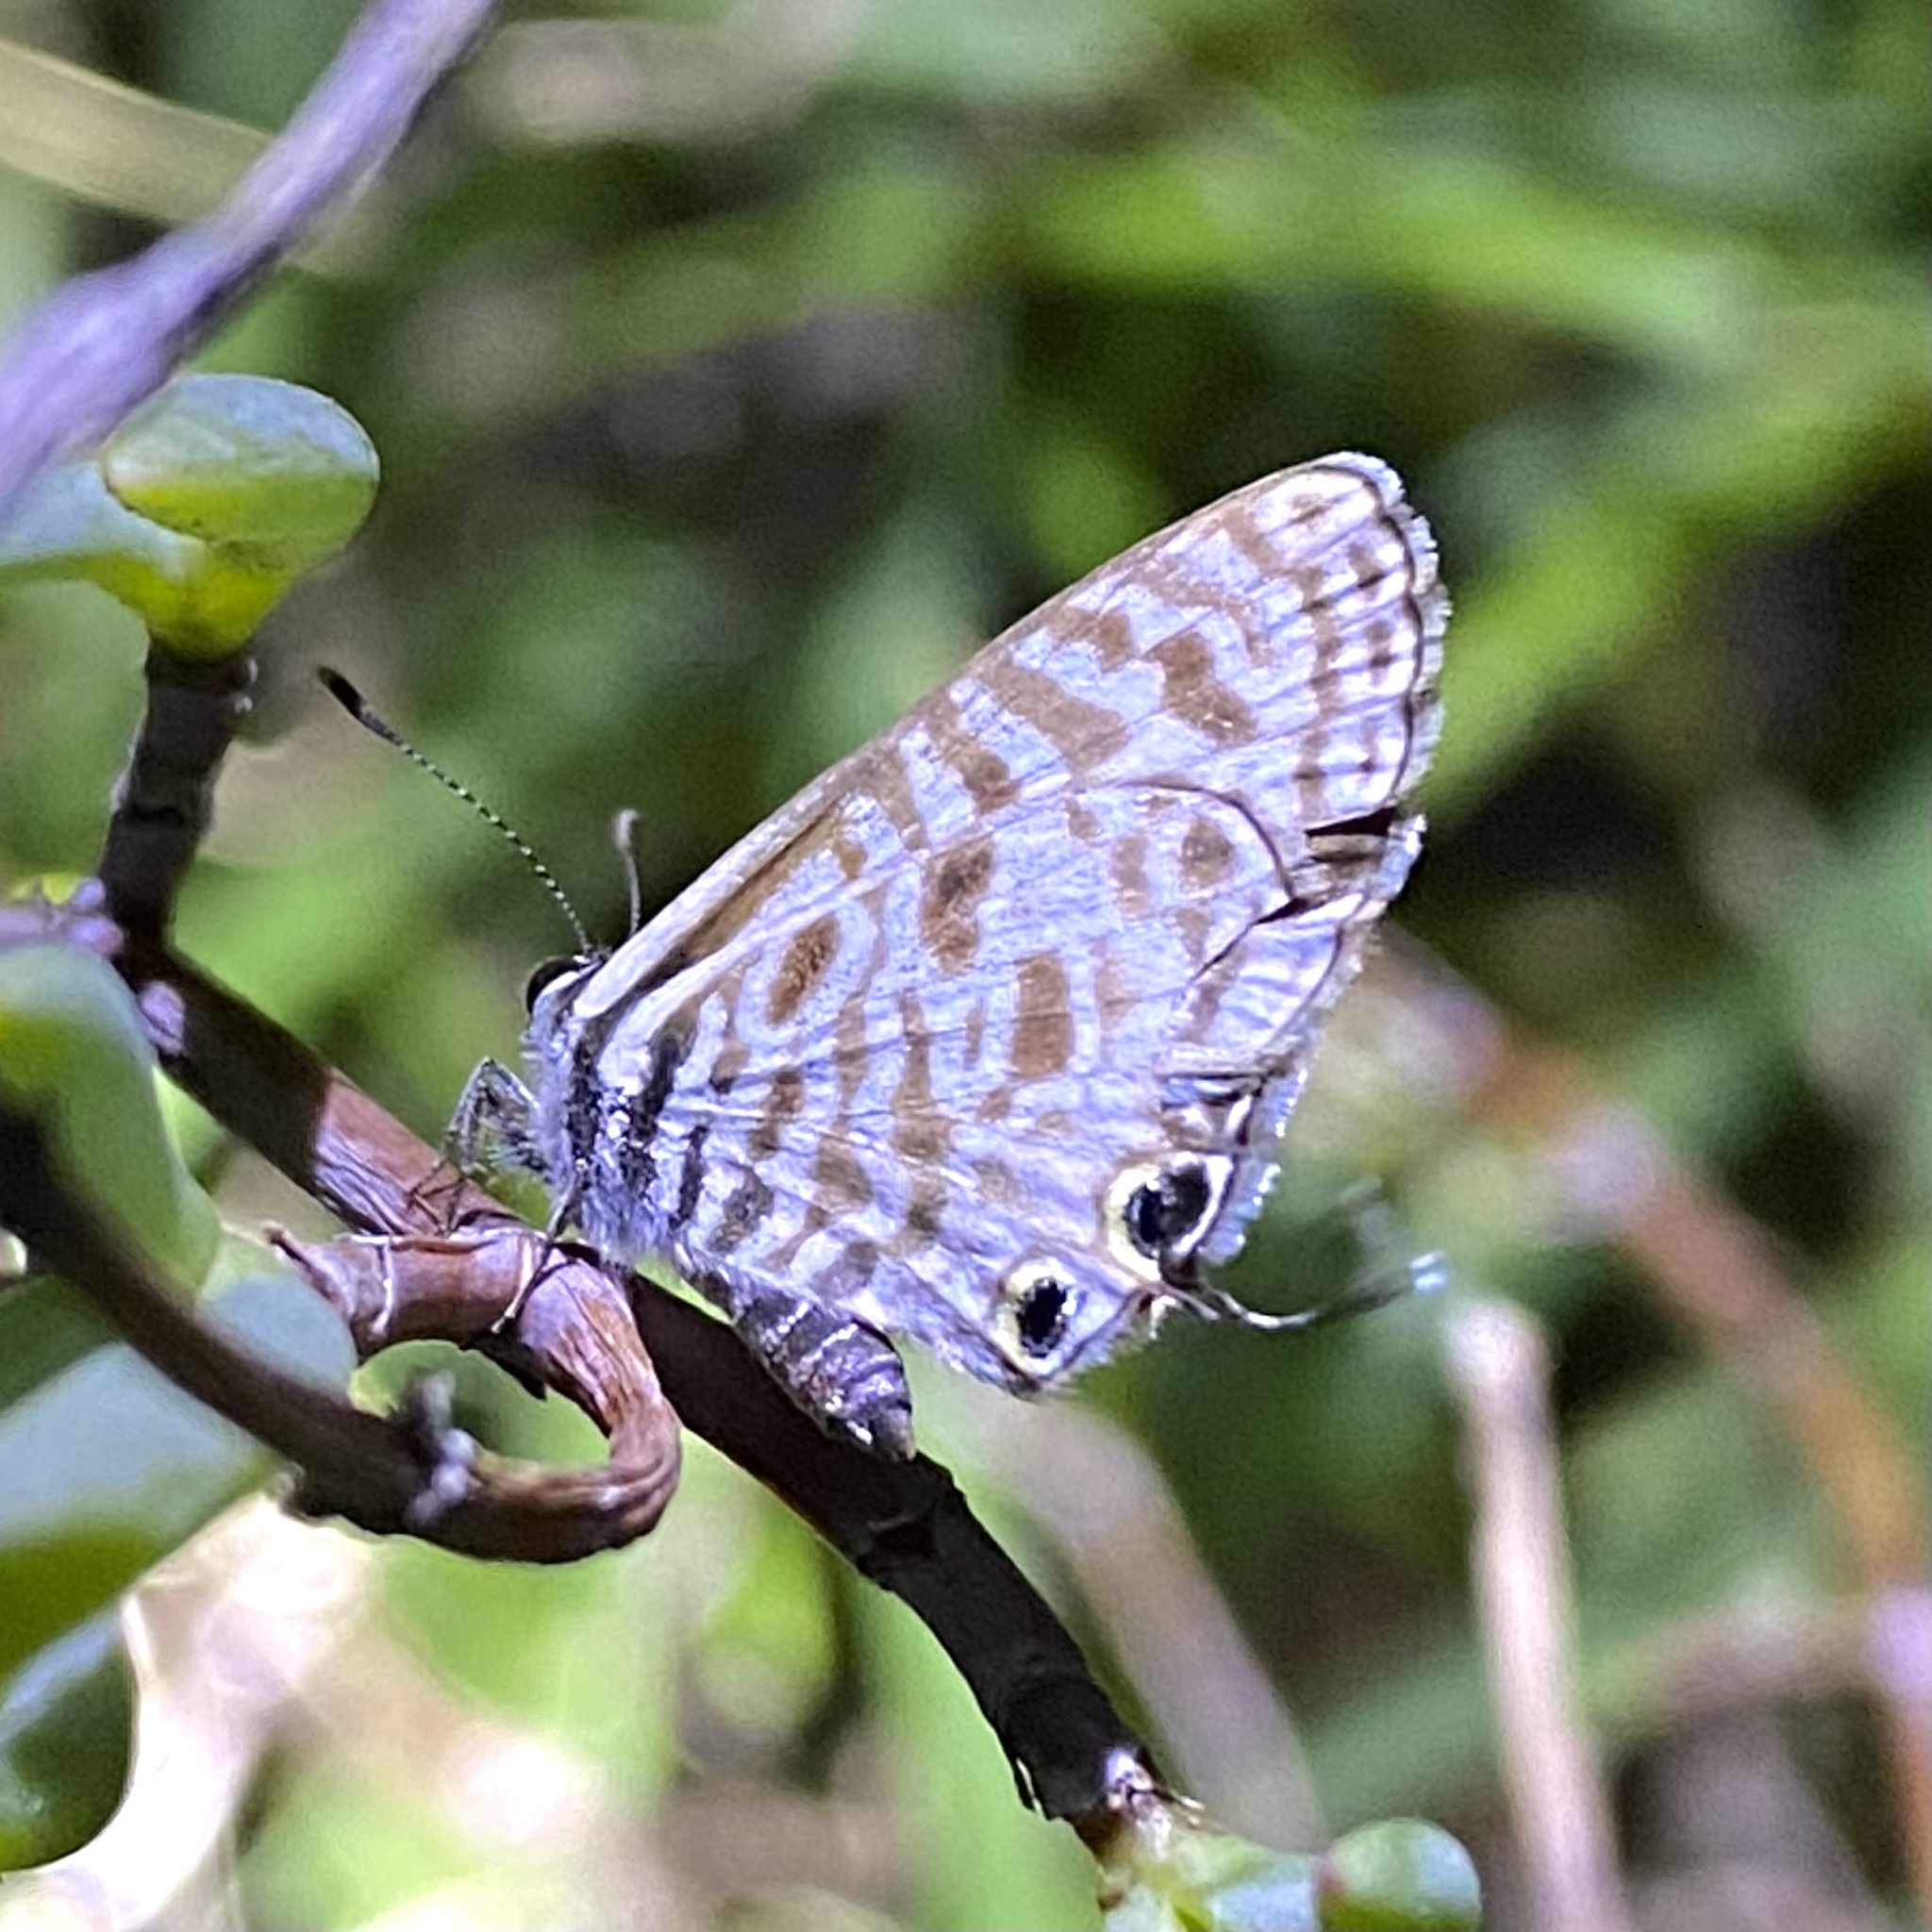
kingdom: Animalia
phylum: Arthropoda
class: Insecta
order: Lepidoptera
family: Lycaenidae
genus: Leptotes
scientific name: Leptotes
